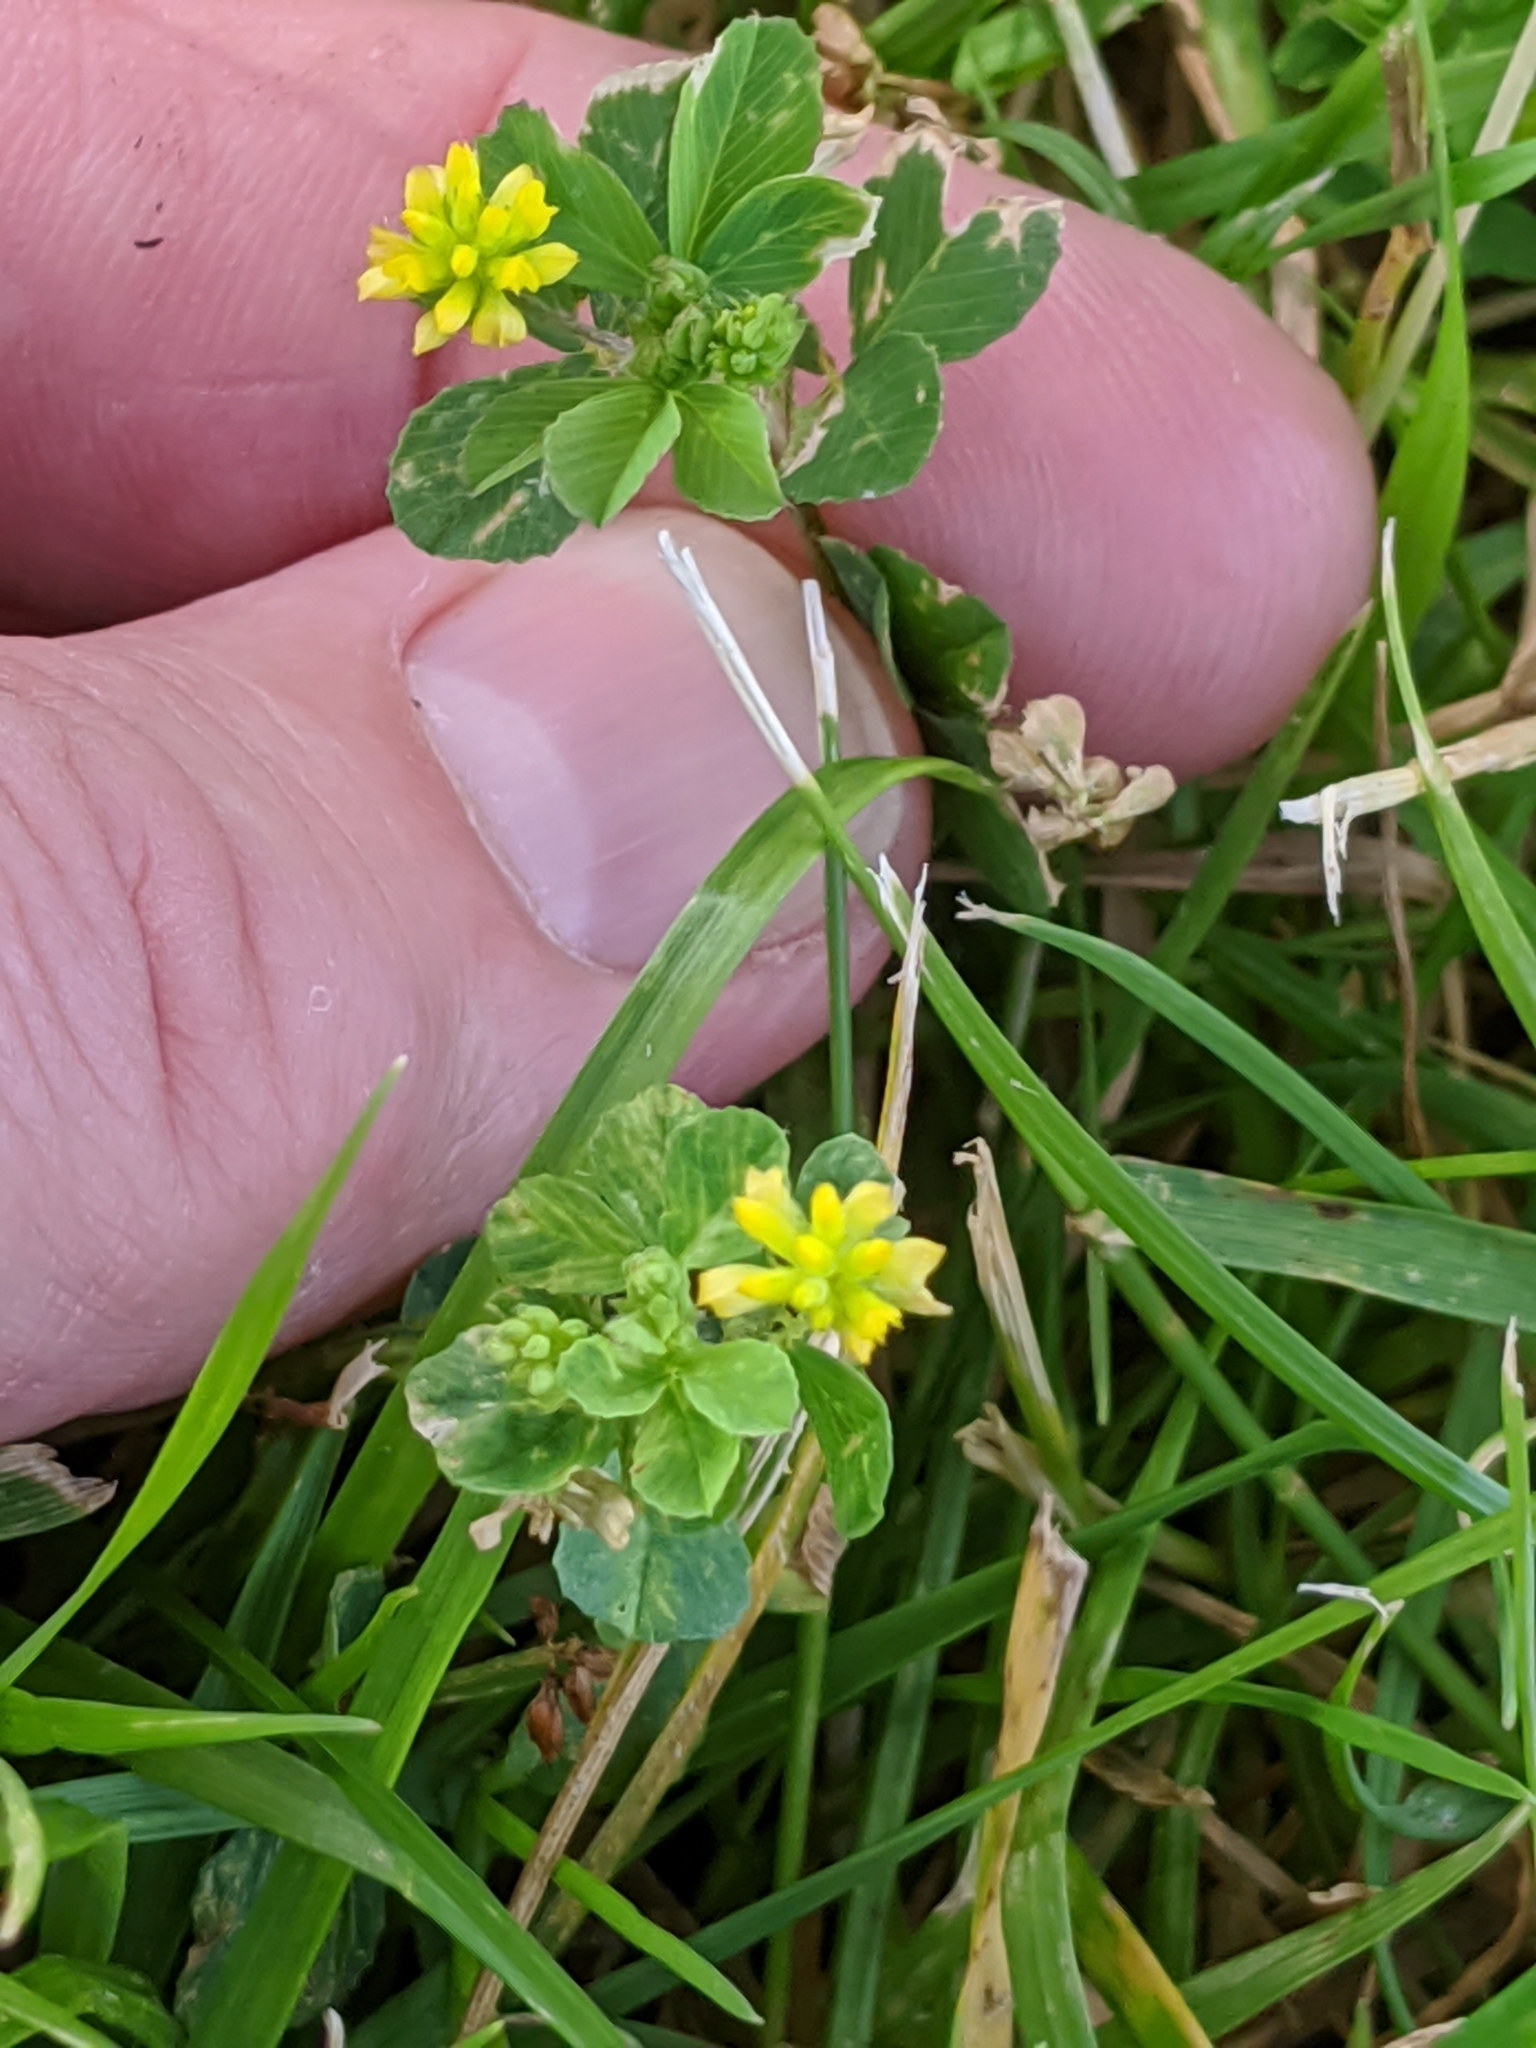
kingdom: Plantae
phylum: Tracheophyta
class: Magnoliopsida
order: Fabales
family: Fabaceae
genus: Trifolium
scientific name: Trifolium dubium
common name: Suckling clover
